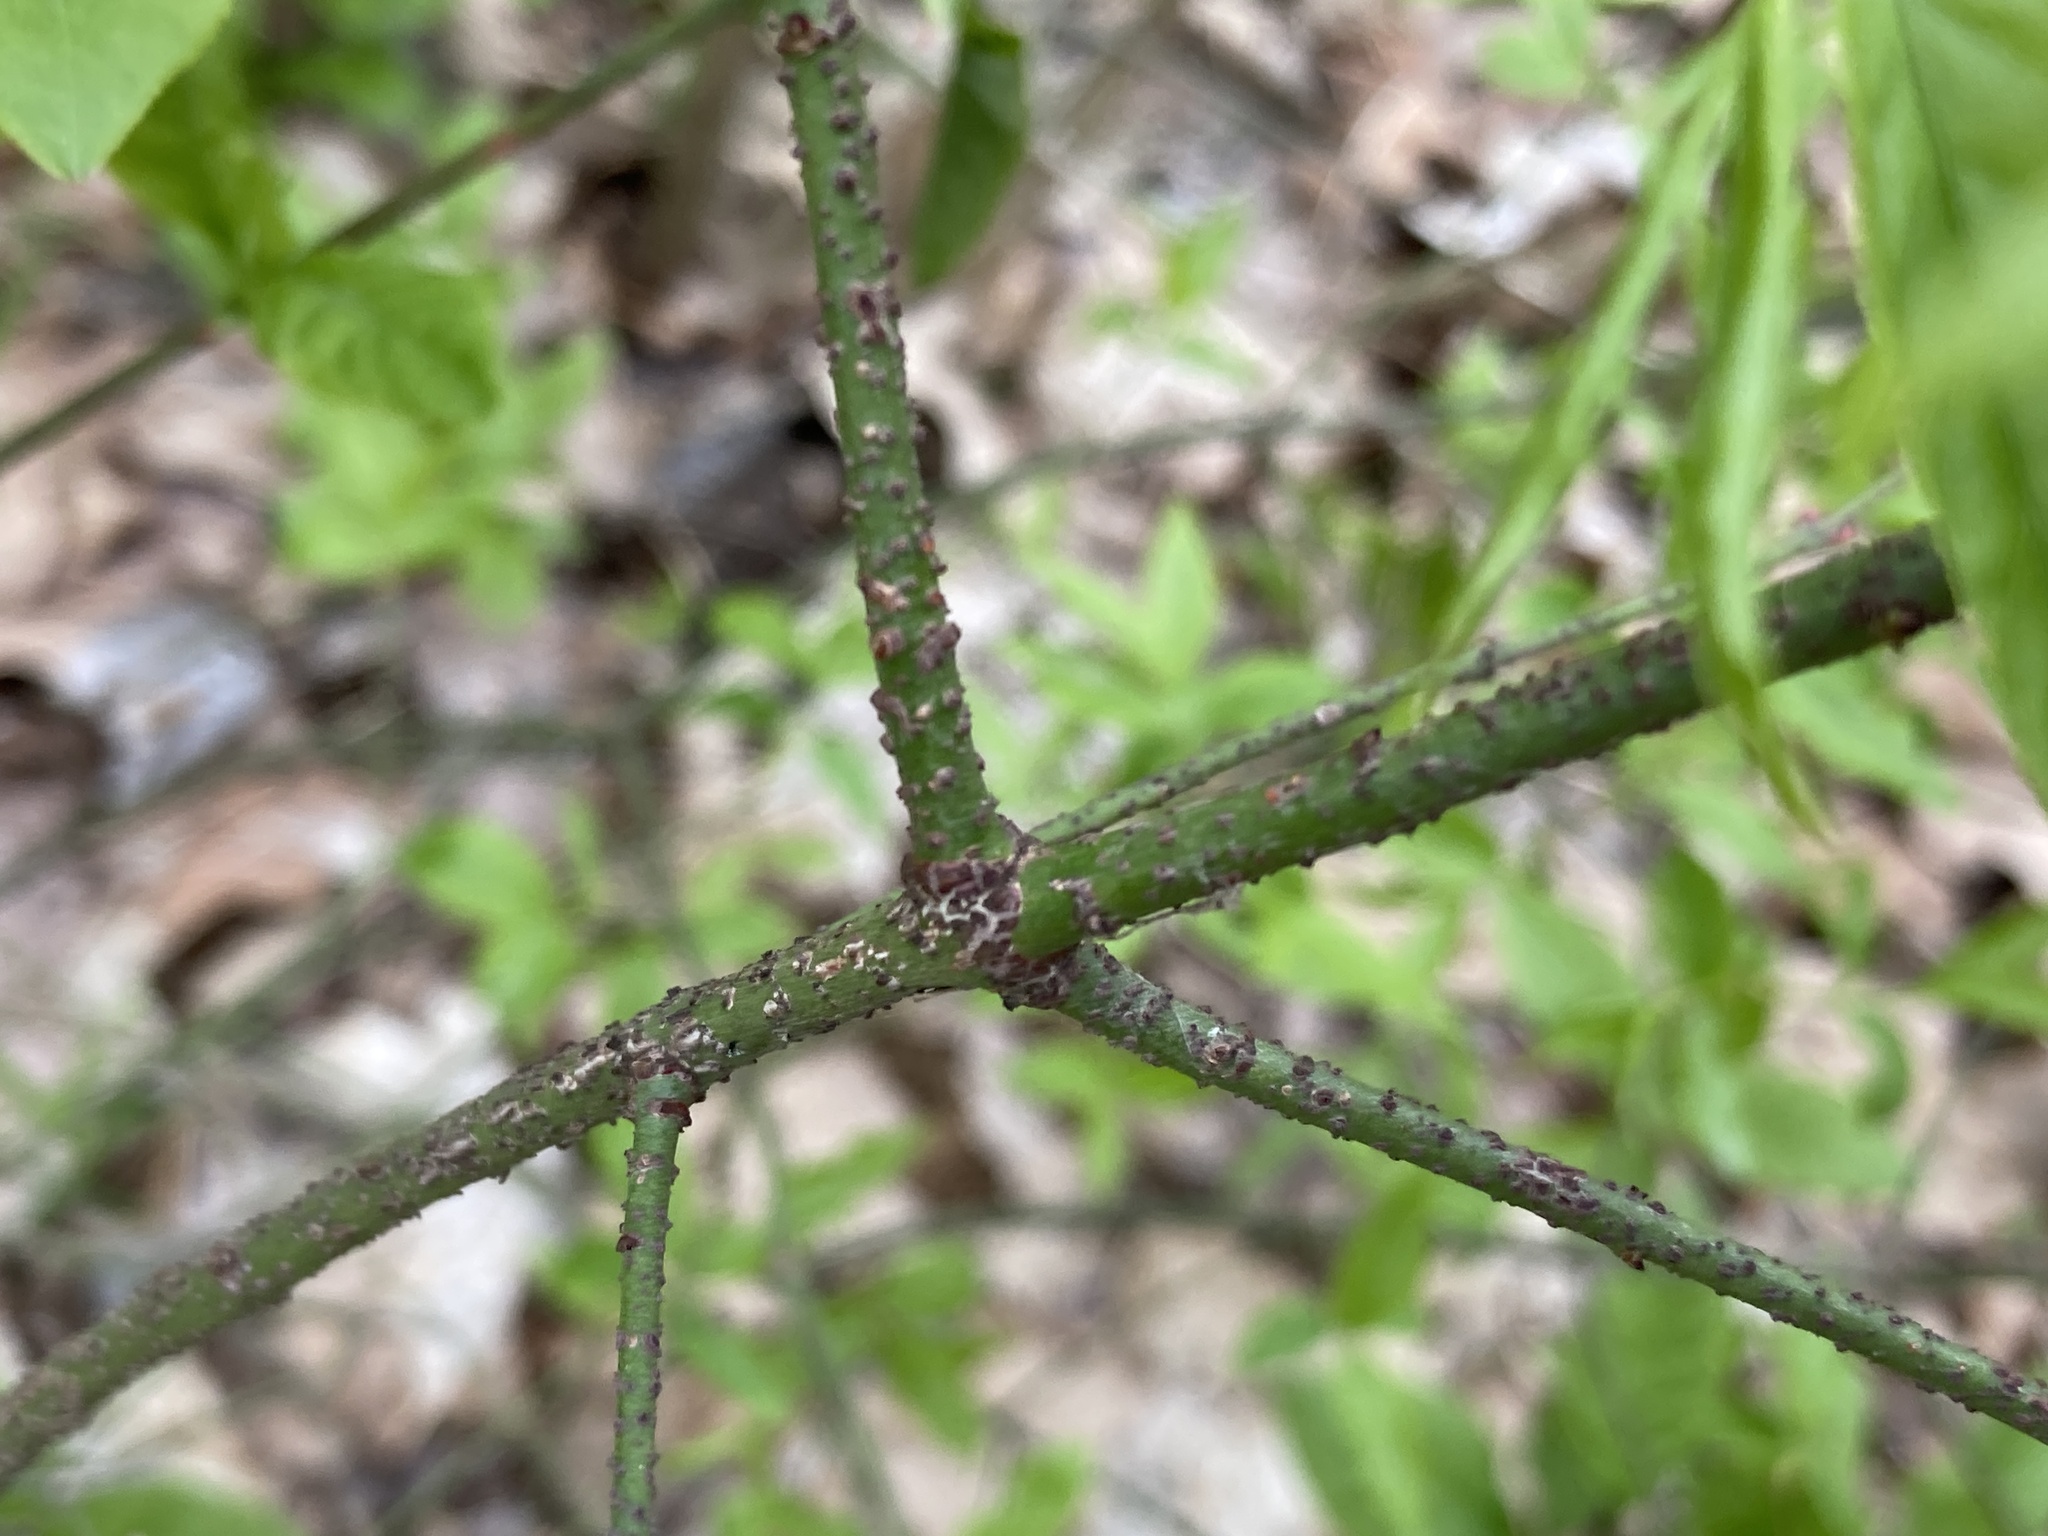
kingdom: Plantae
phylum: Tracheophyta
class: Magnoliopsida
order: Celastrales
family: Celastraceae
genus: Euonymus
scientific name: Euonymus verrucosus
